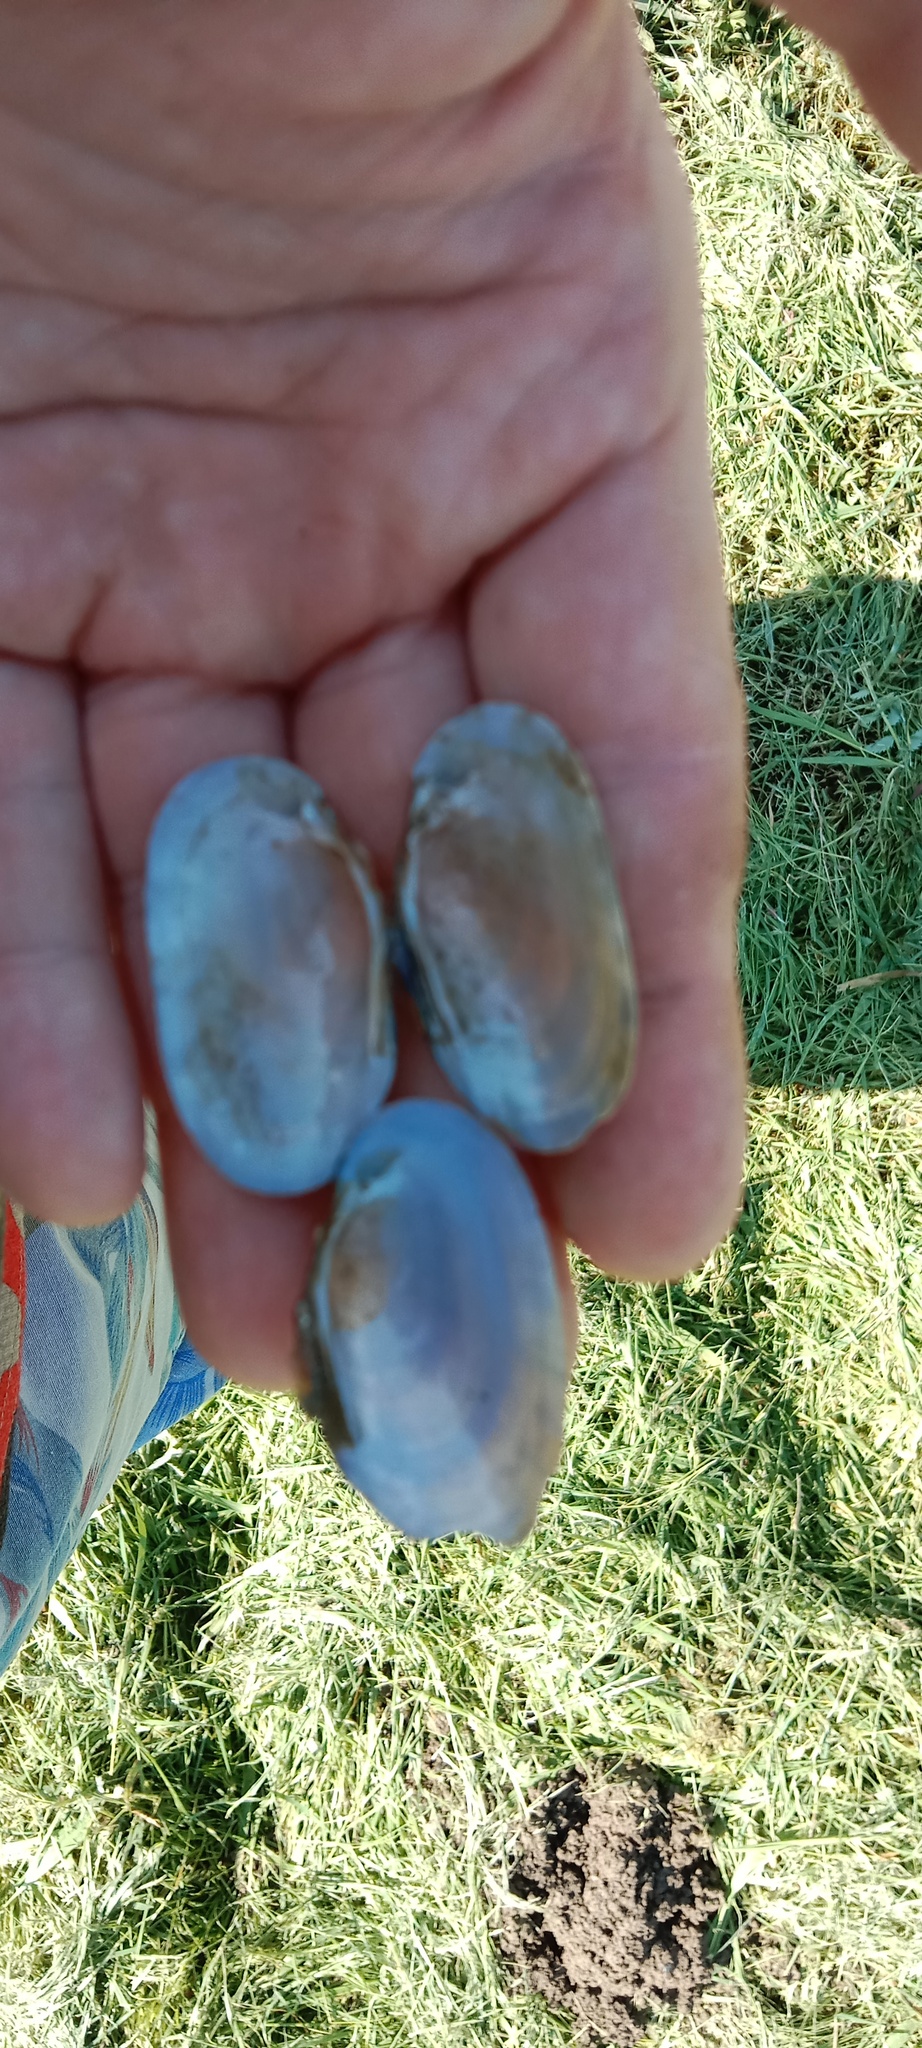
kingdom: Animalia
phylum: Mollusca
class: Bivalvia
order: Unionida
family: Unionidae
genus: Unio
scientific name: Unio crassus
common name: Thick shelled river mussel
